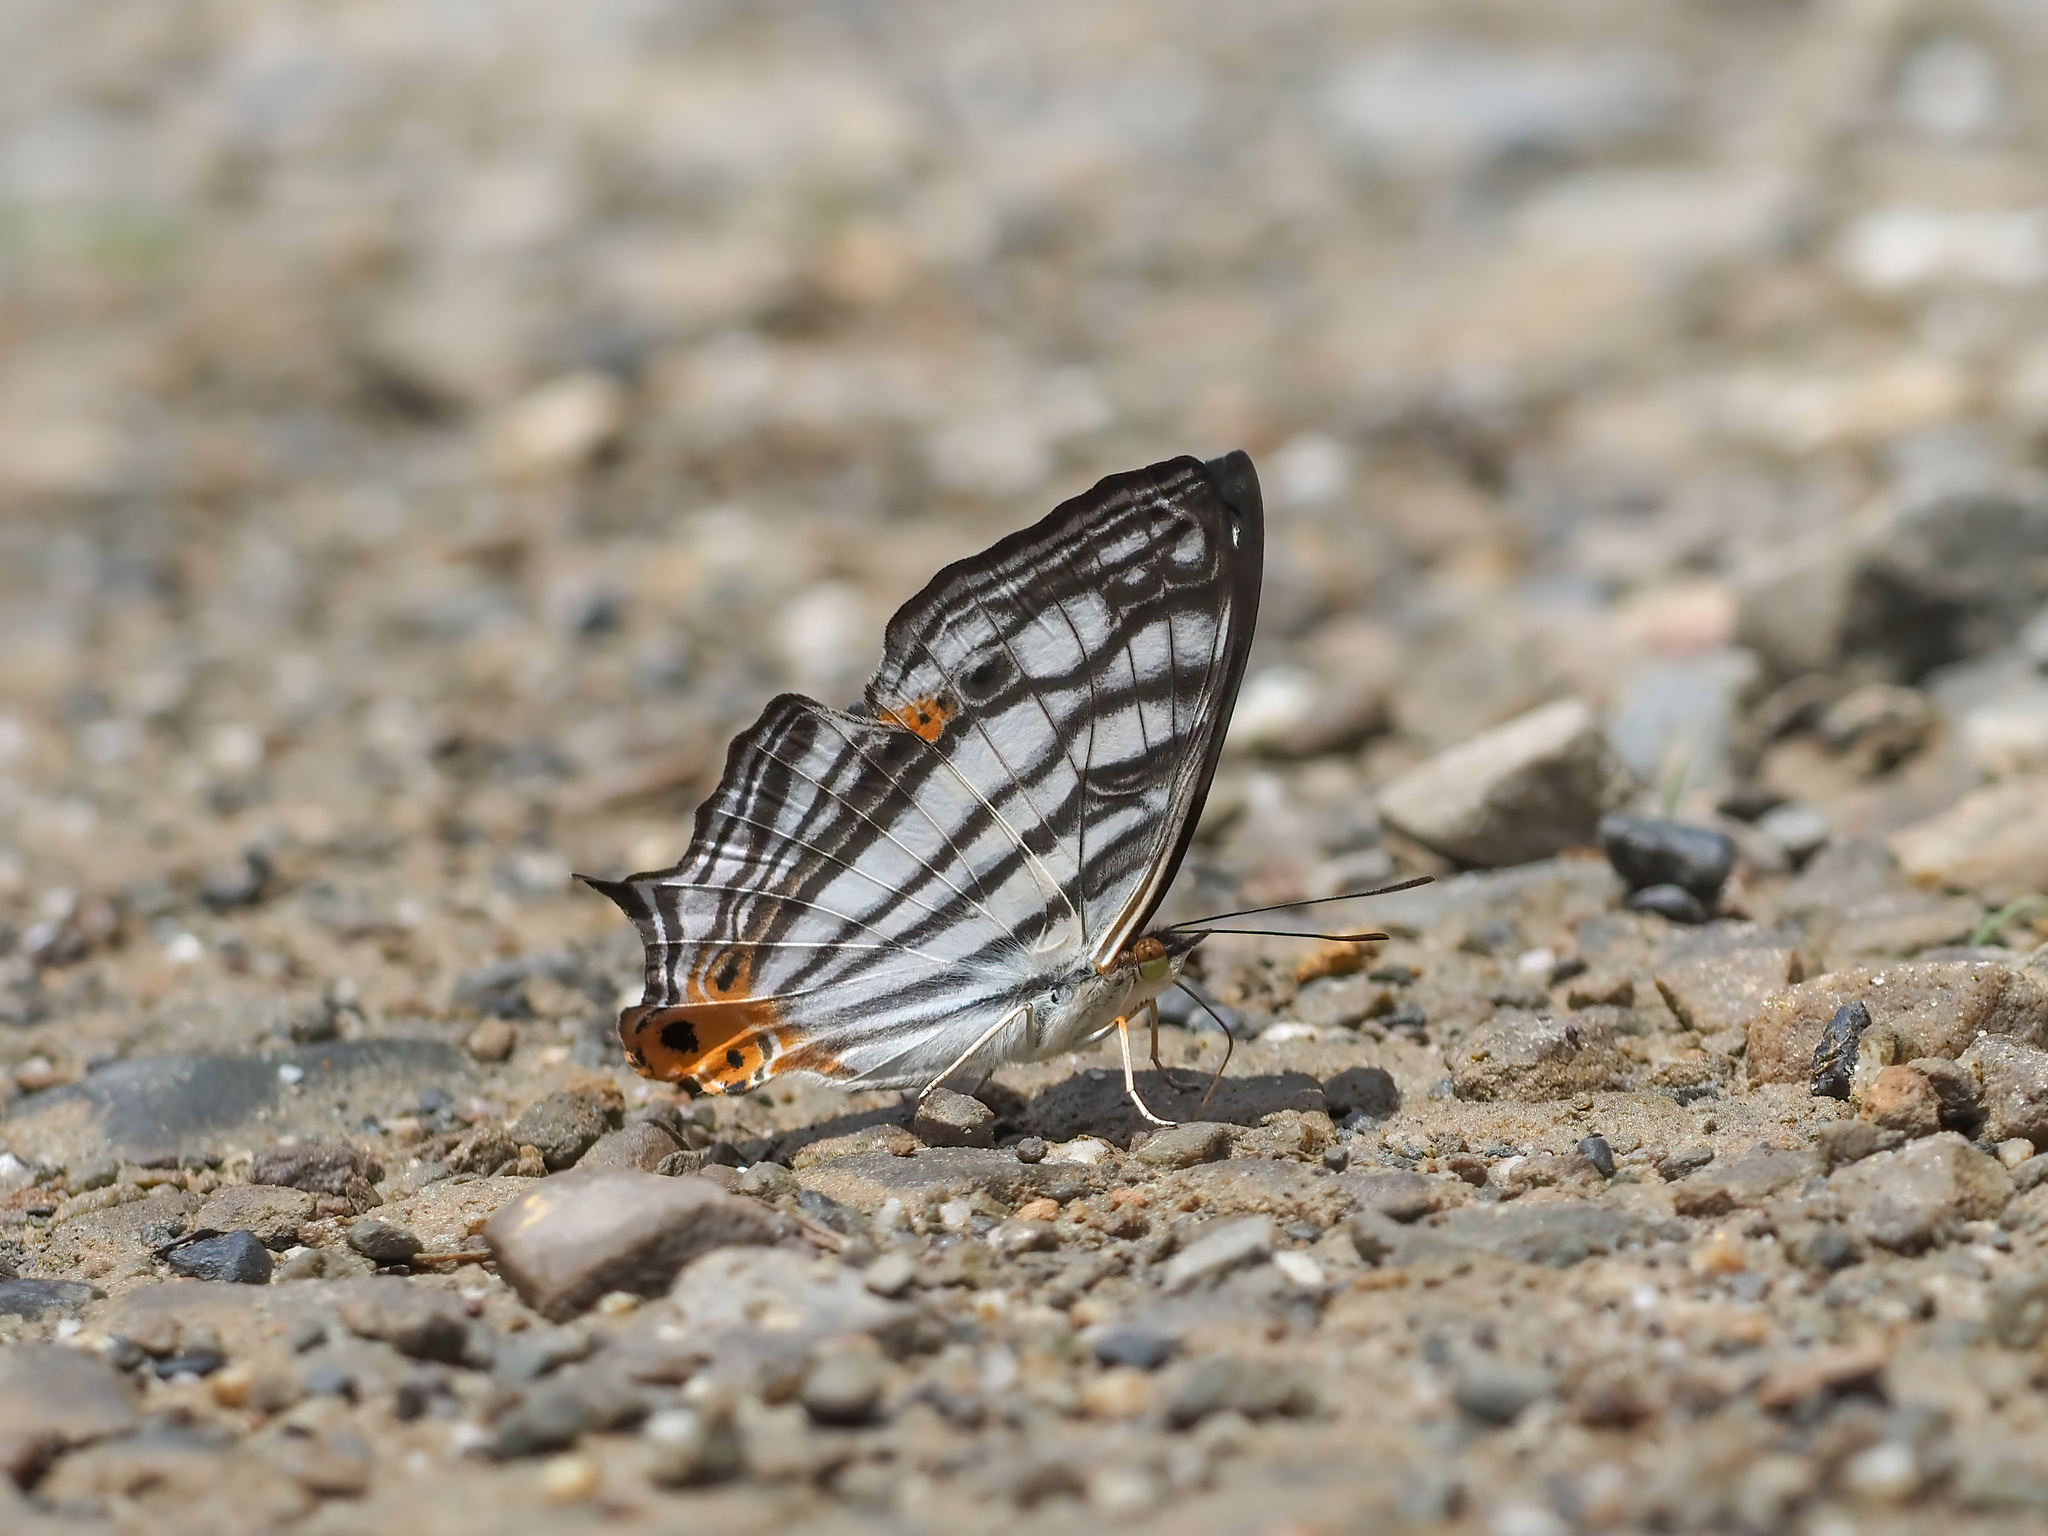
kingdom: Animalia
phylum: Arthropoda
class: Insecta
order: Lepidoptera
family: Nymphalidae
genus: Cyrestis
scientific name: Cyrestis maenalis
